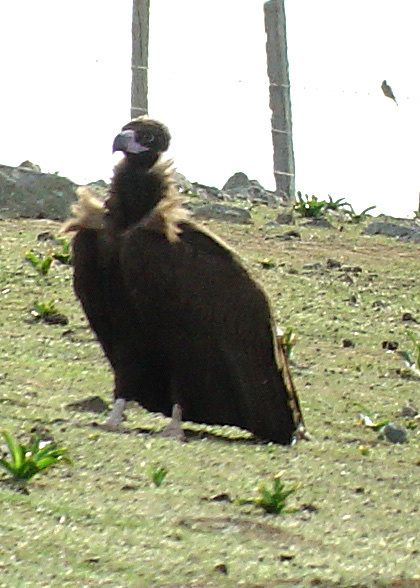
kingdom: Animalia
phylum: Chordata
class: Aves
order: Accipitriformes
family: Accipitridae
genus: Aegypius
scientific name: Aegypius monachus
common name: Cinereous vulture
